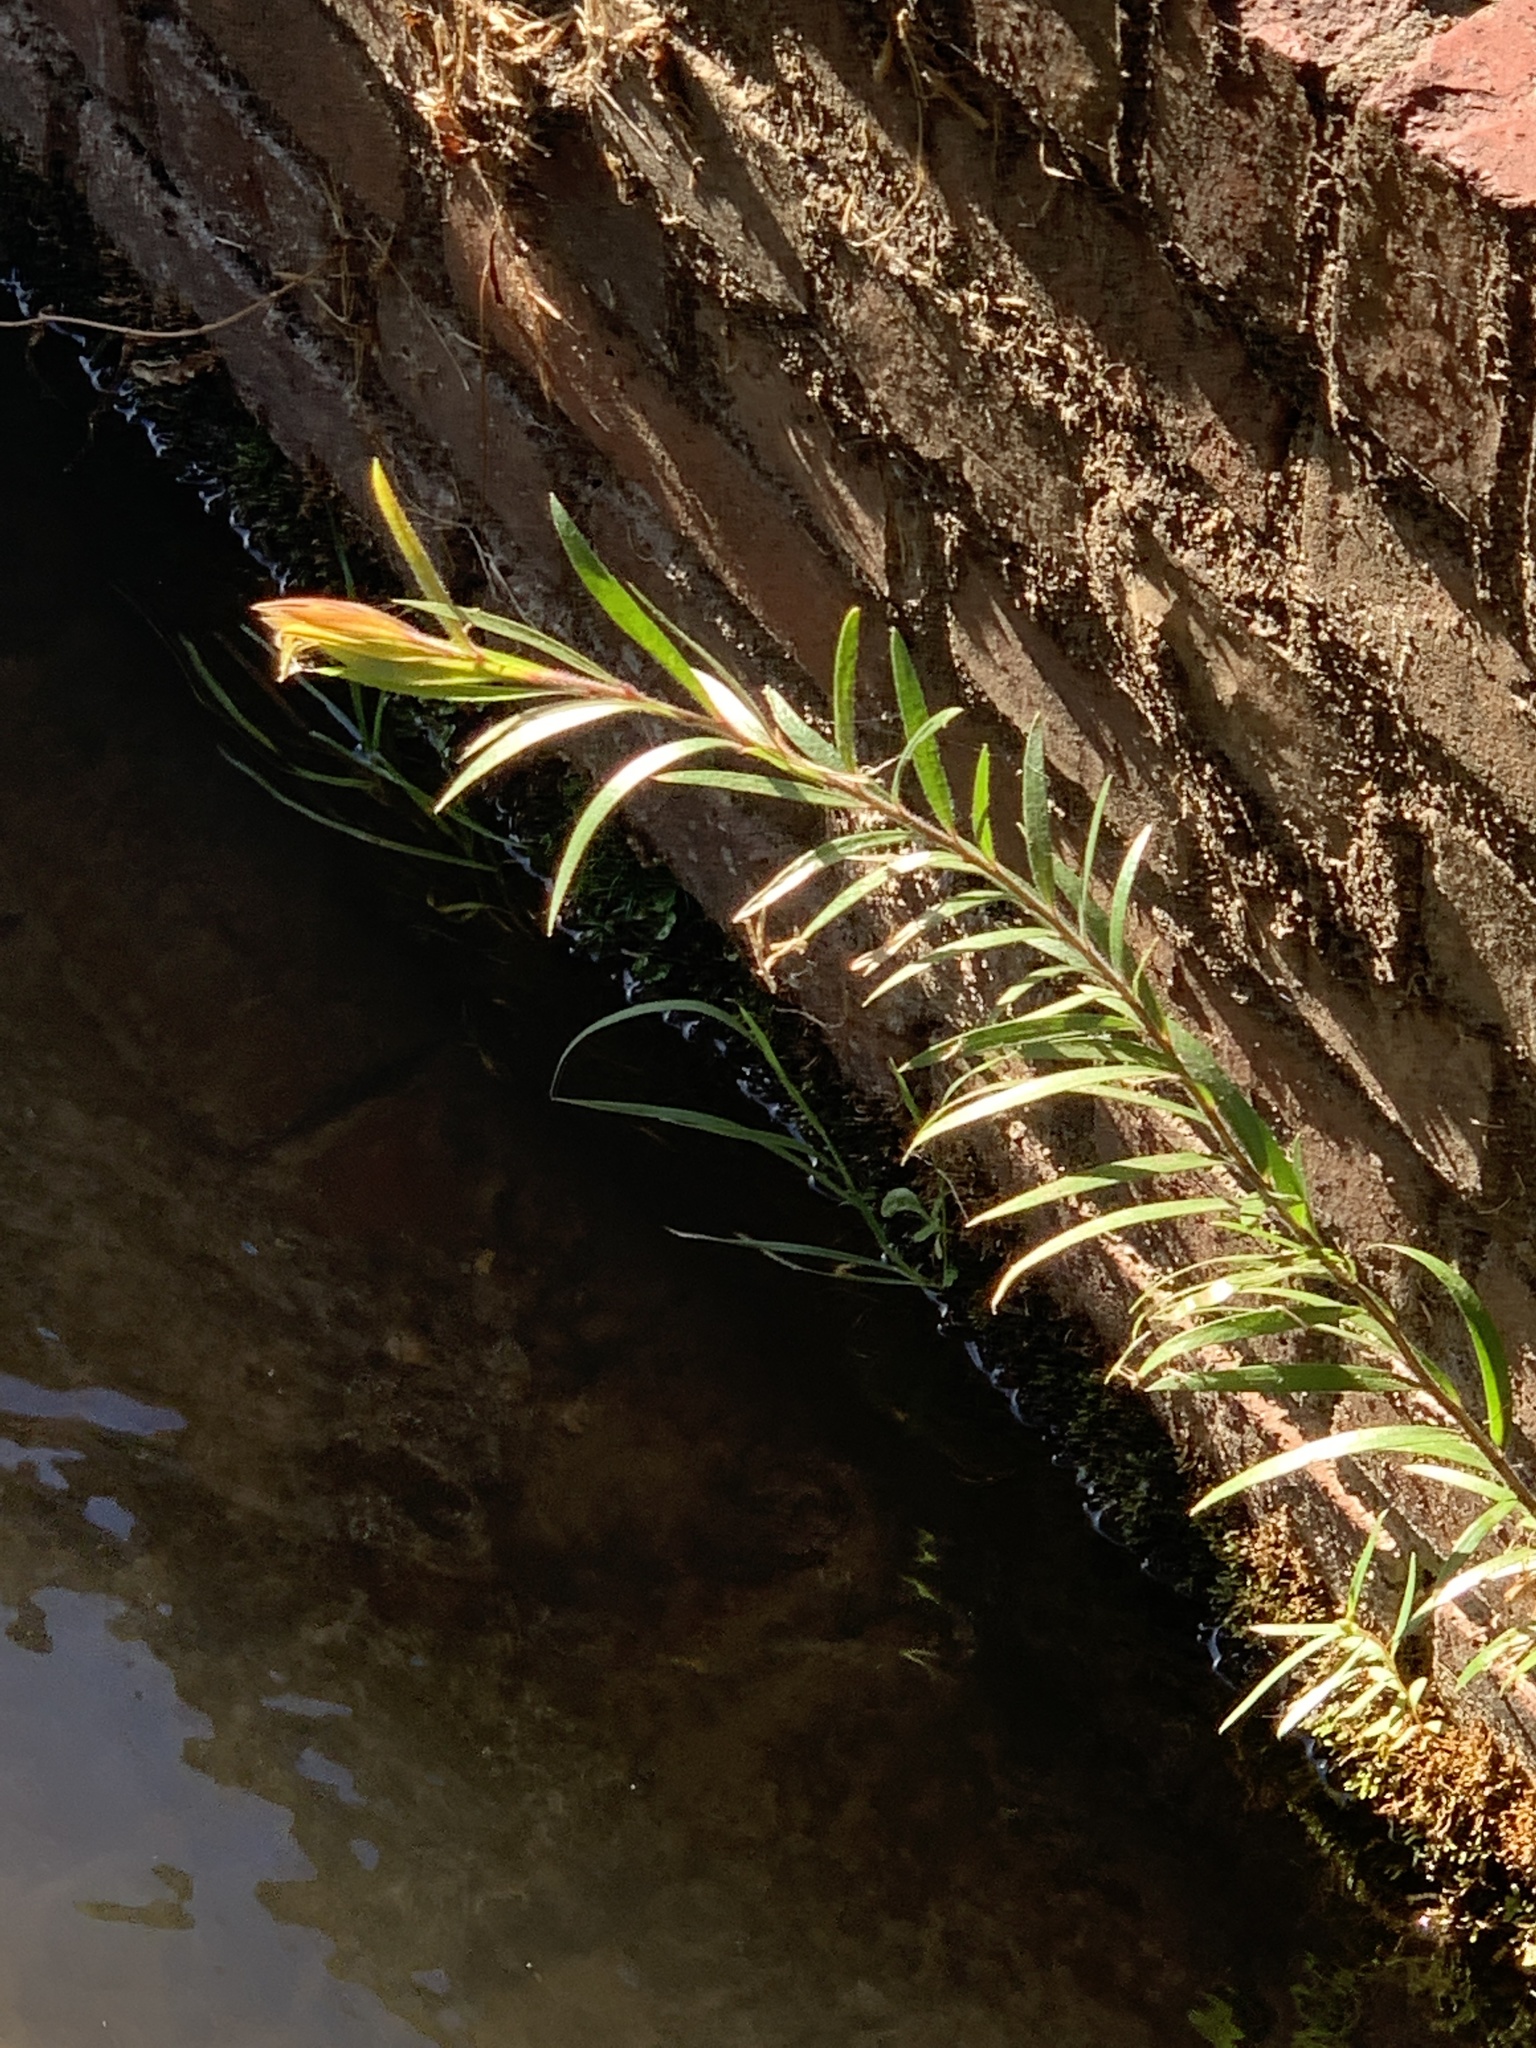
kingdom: Plantae
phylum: Tracheophyta
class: Magnoliopsida
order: Myrtales
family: Myrtaceae
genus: Callistemon
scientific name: Callistemon viminalis
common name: Drooping bottlebrush
